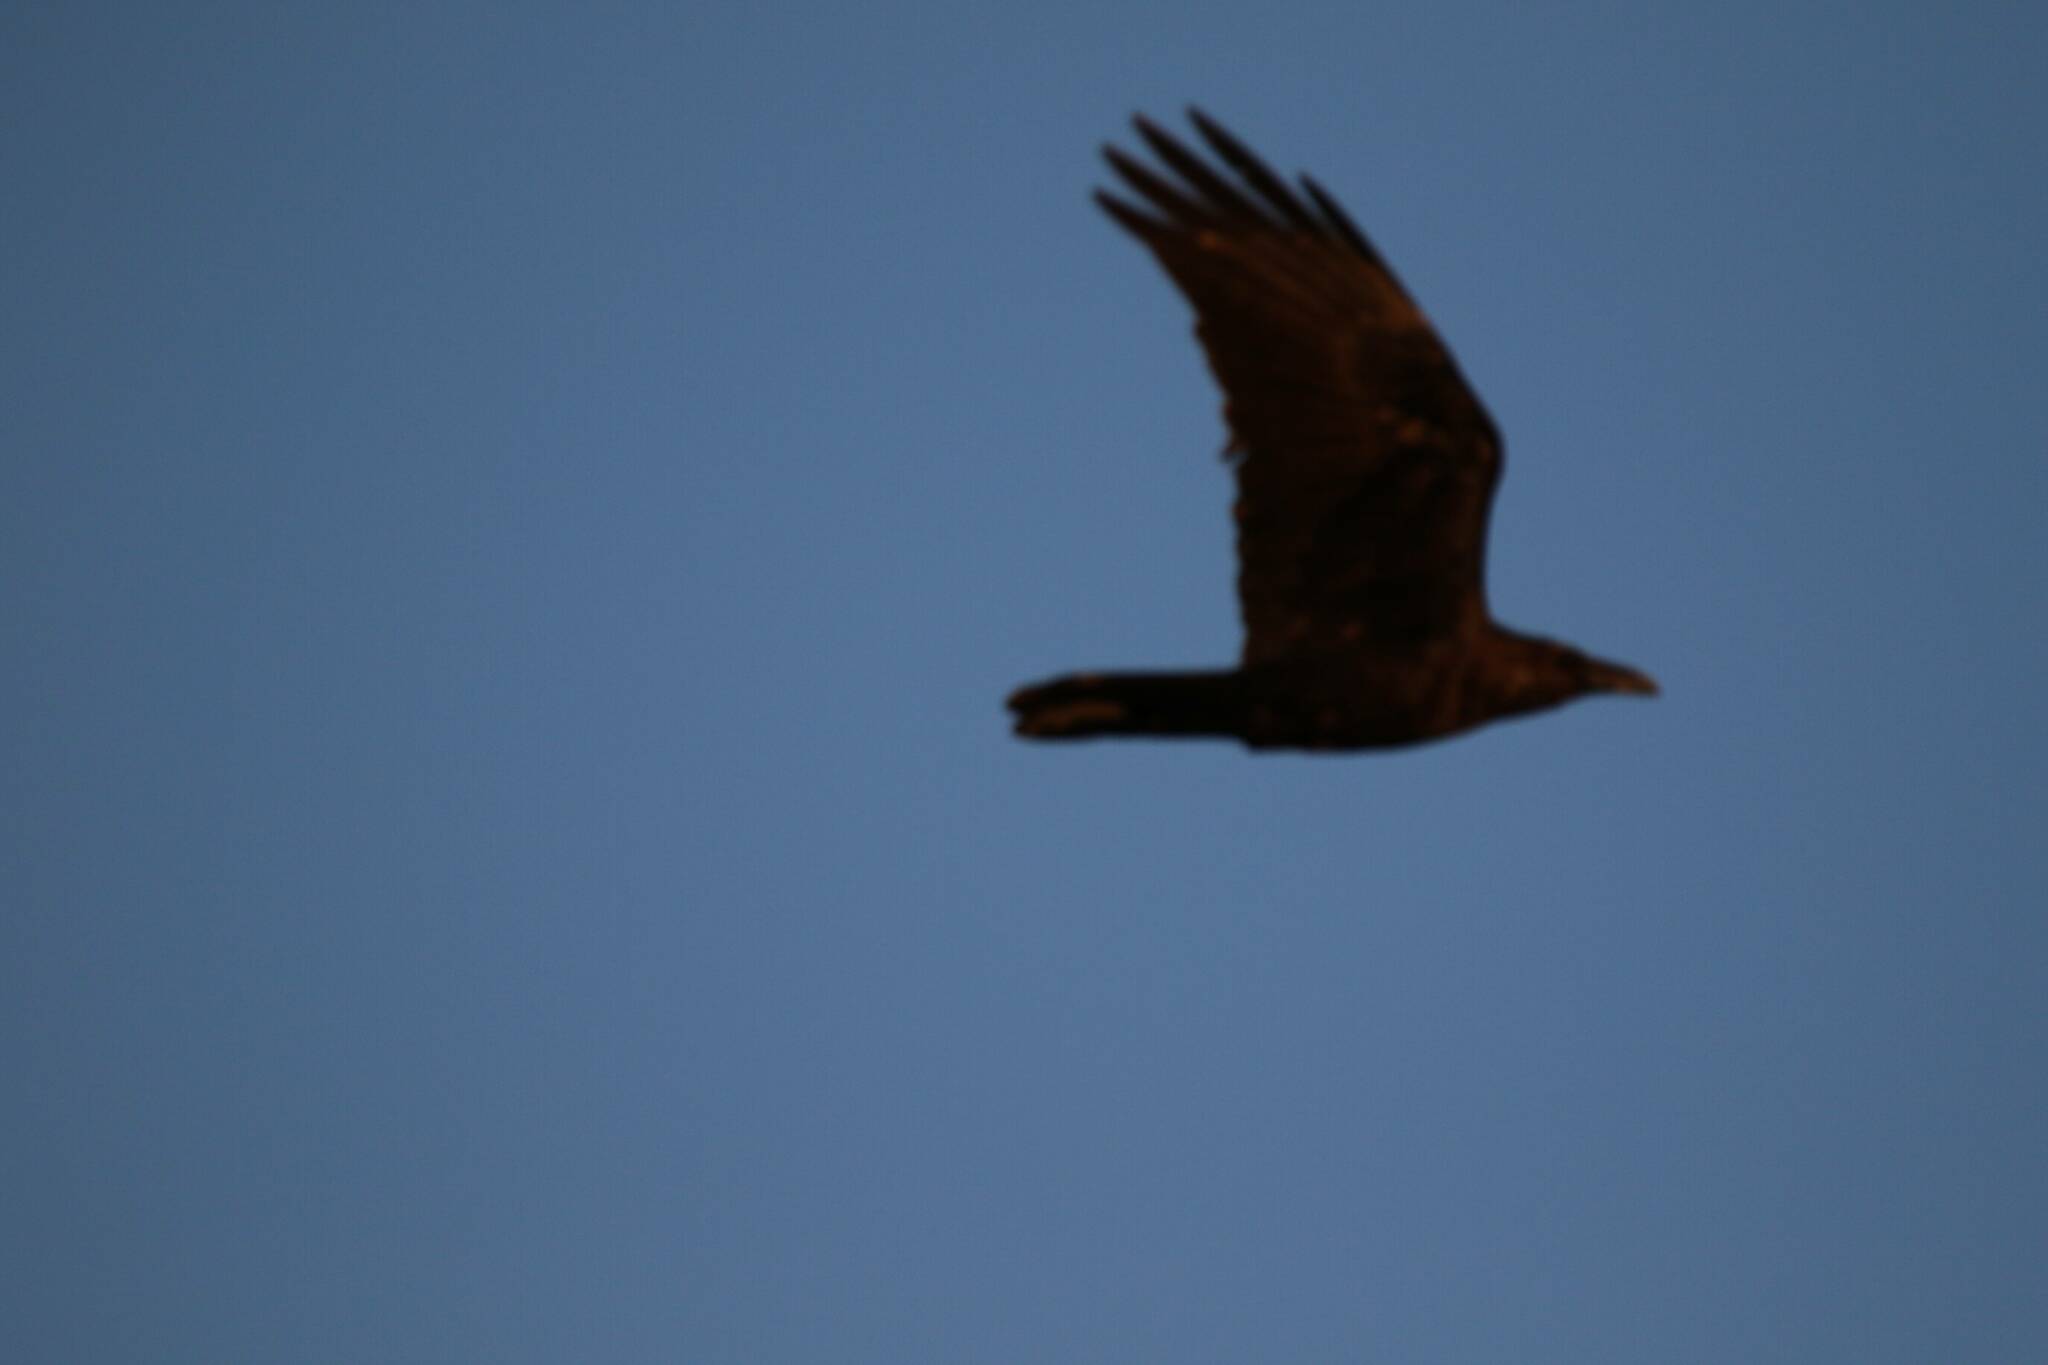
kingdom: Animalia
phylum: Chordata
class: Aves
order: Passeriformes
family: Corvidae
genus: Corvus
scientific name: Corvus ruficollis
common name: Brown-necked raven
